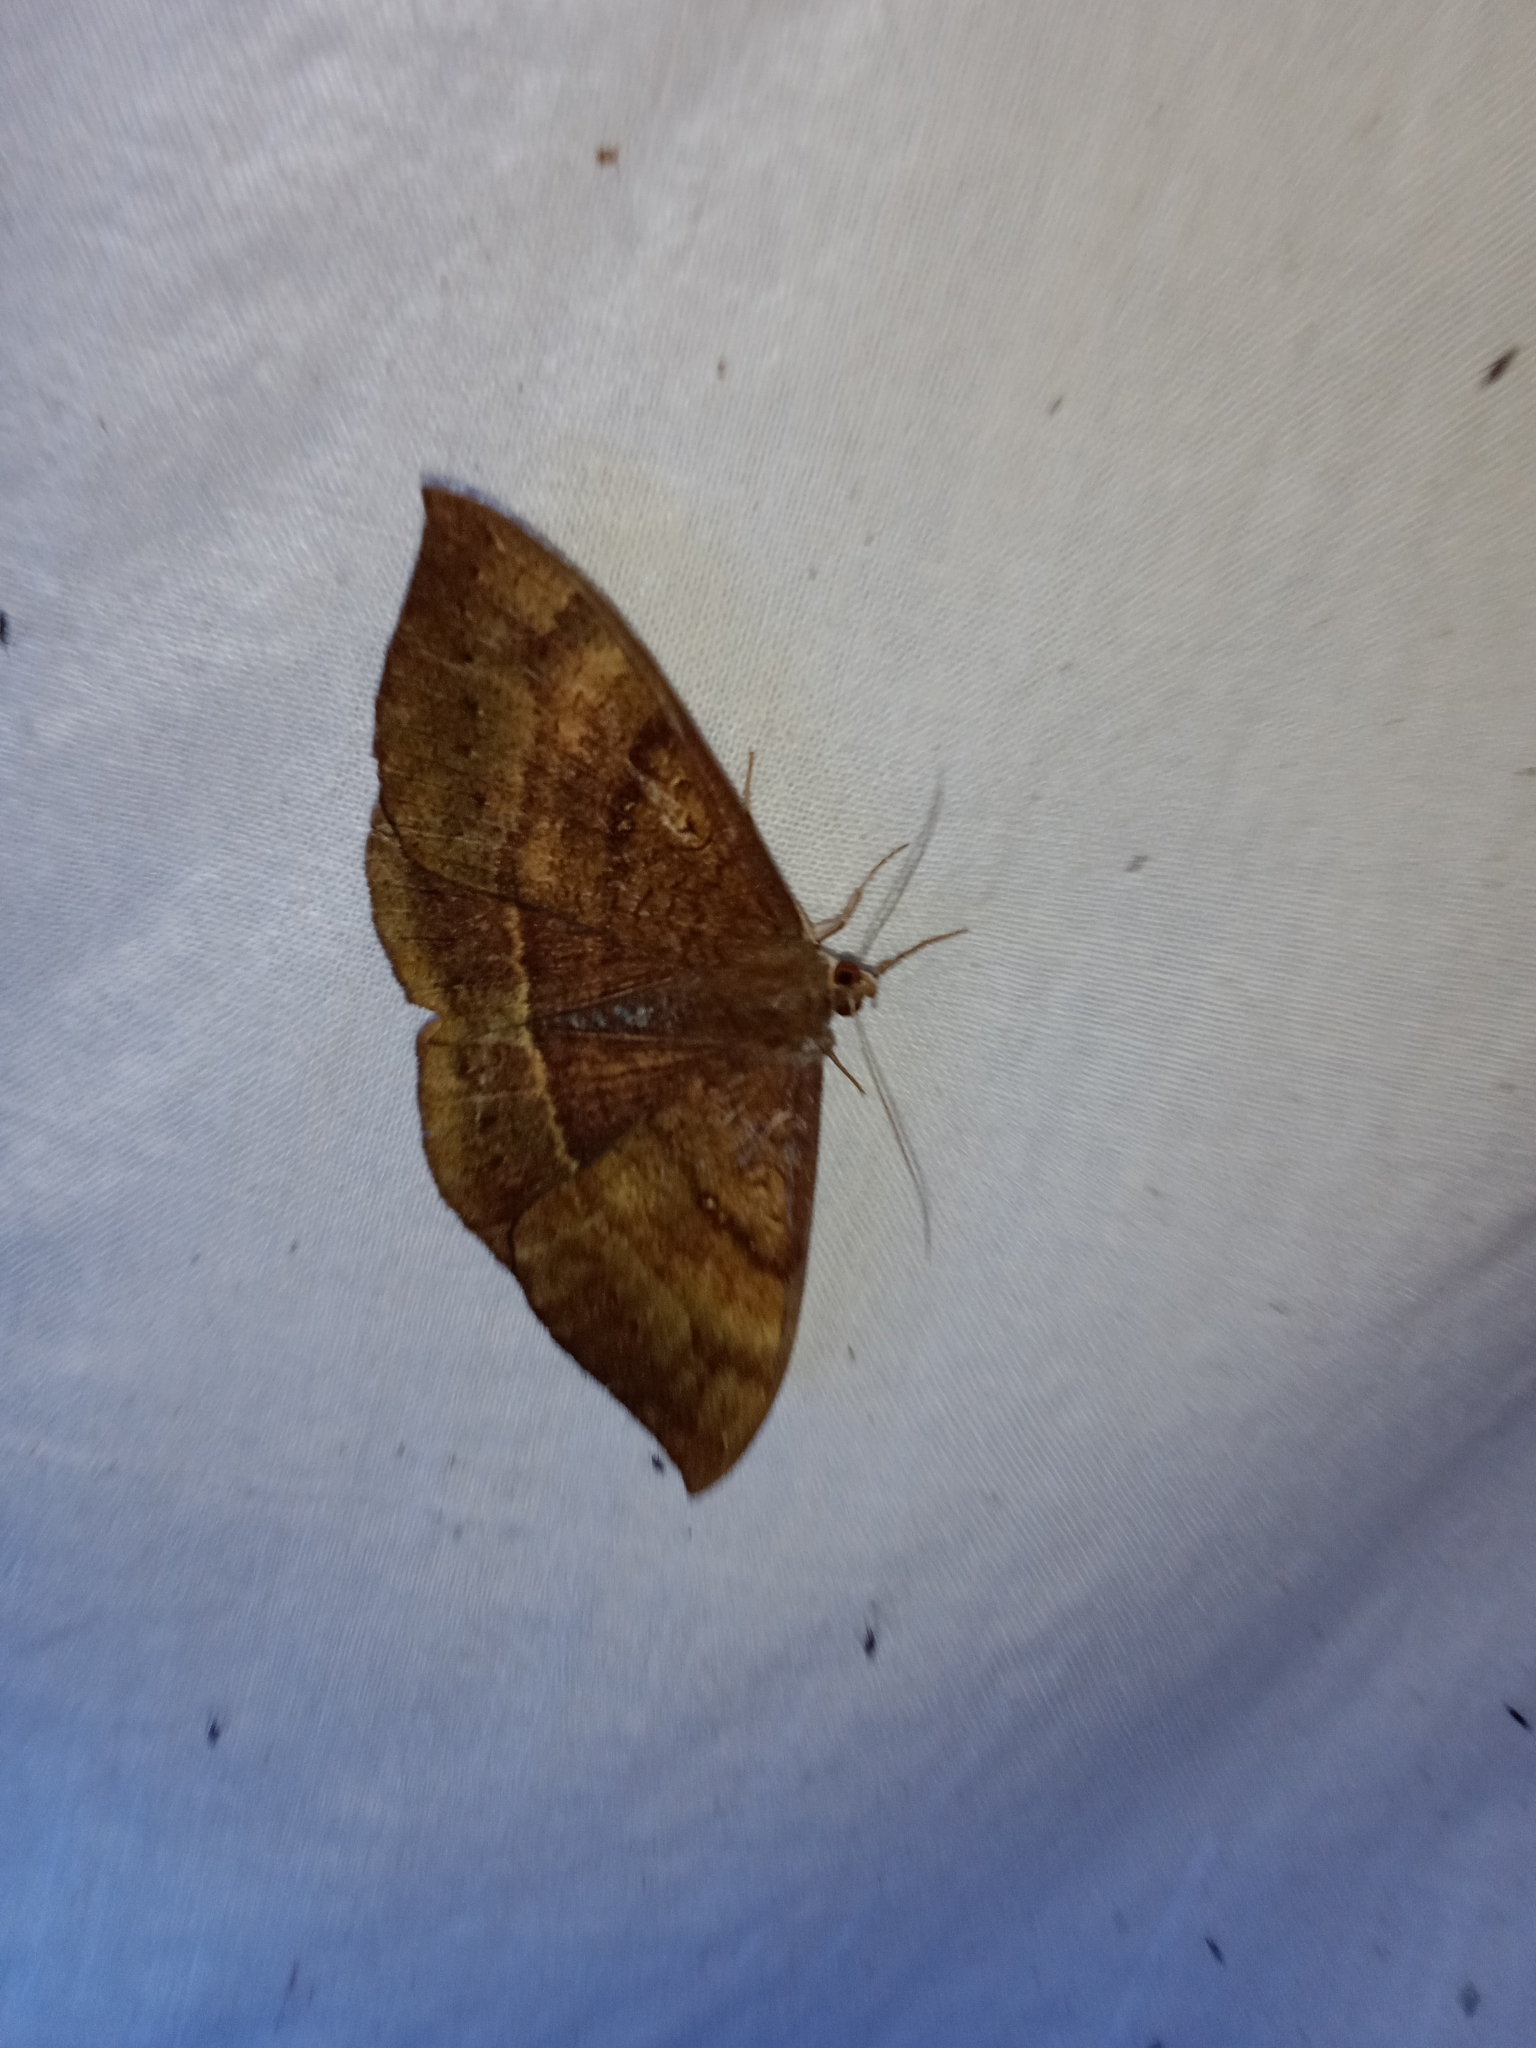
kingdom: Animalia
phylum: Arthropoda
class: Insecta
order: Lepidoptera
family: Erebidae
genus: Lygniodes
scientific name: Lygniodes vampyrus
